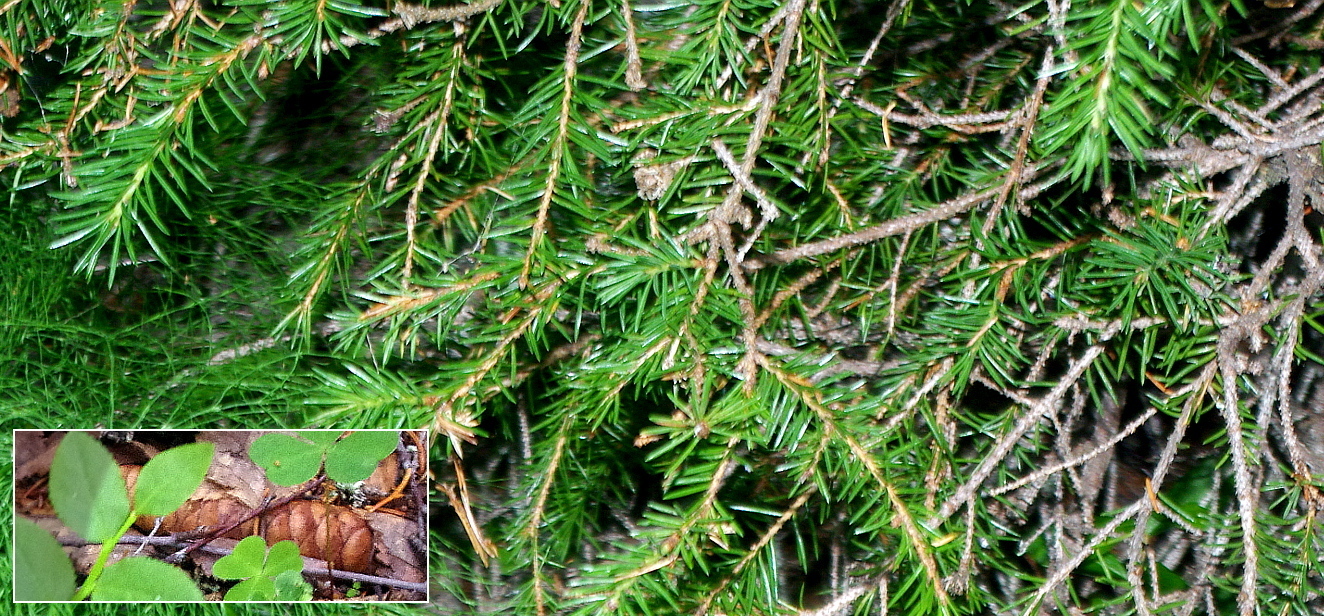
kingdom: Plantae
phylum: Tracheophyta
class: Pinopsida
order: Pinales
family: Pinaceae
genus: Picea
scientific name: Picea fennica
